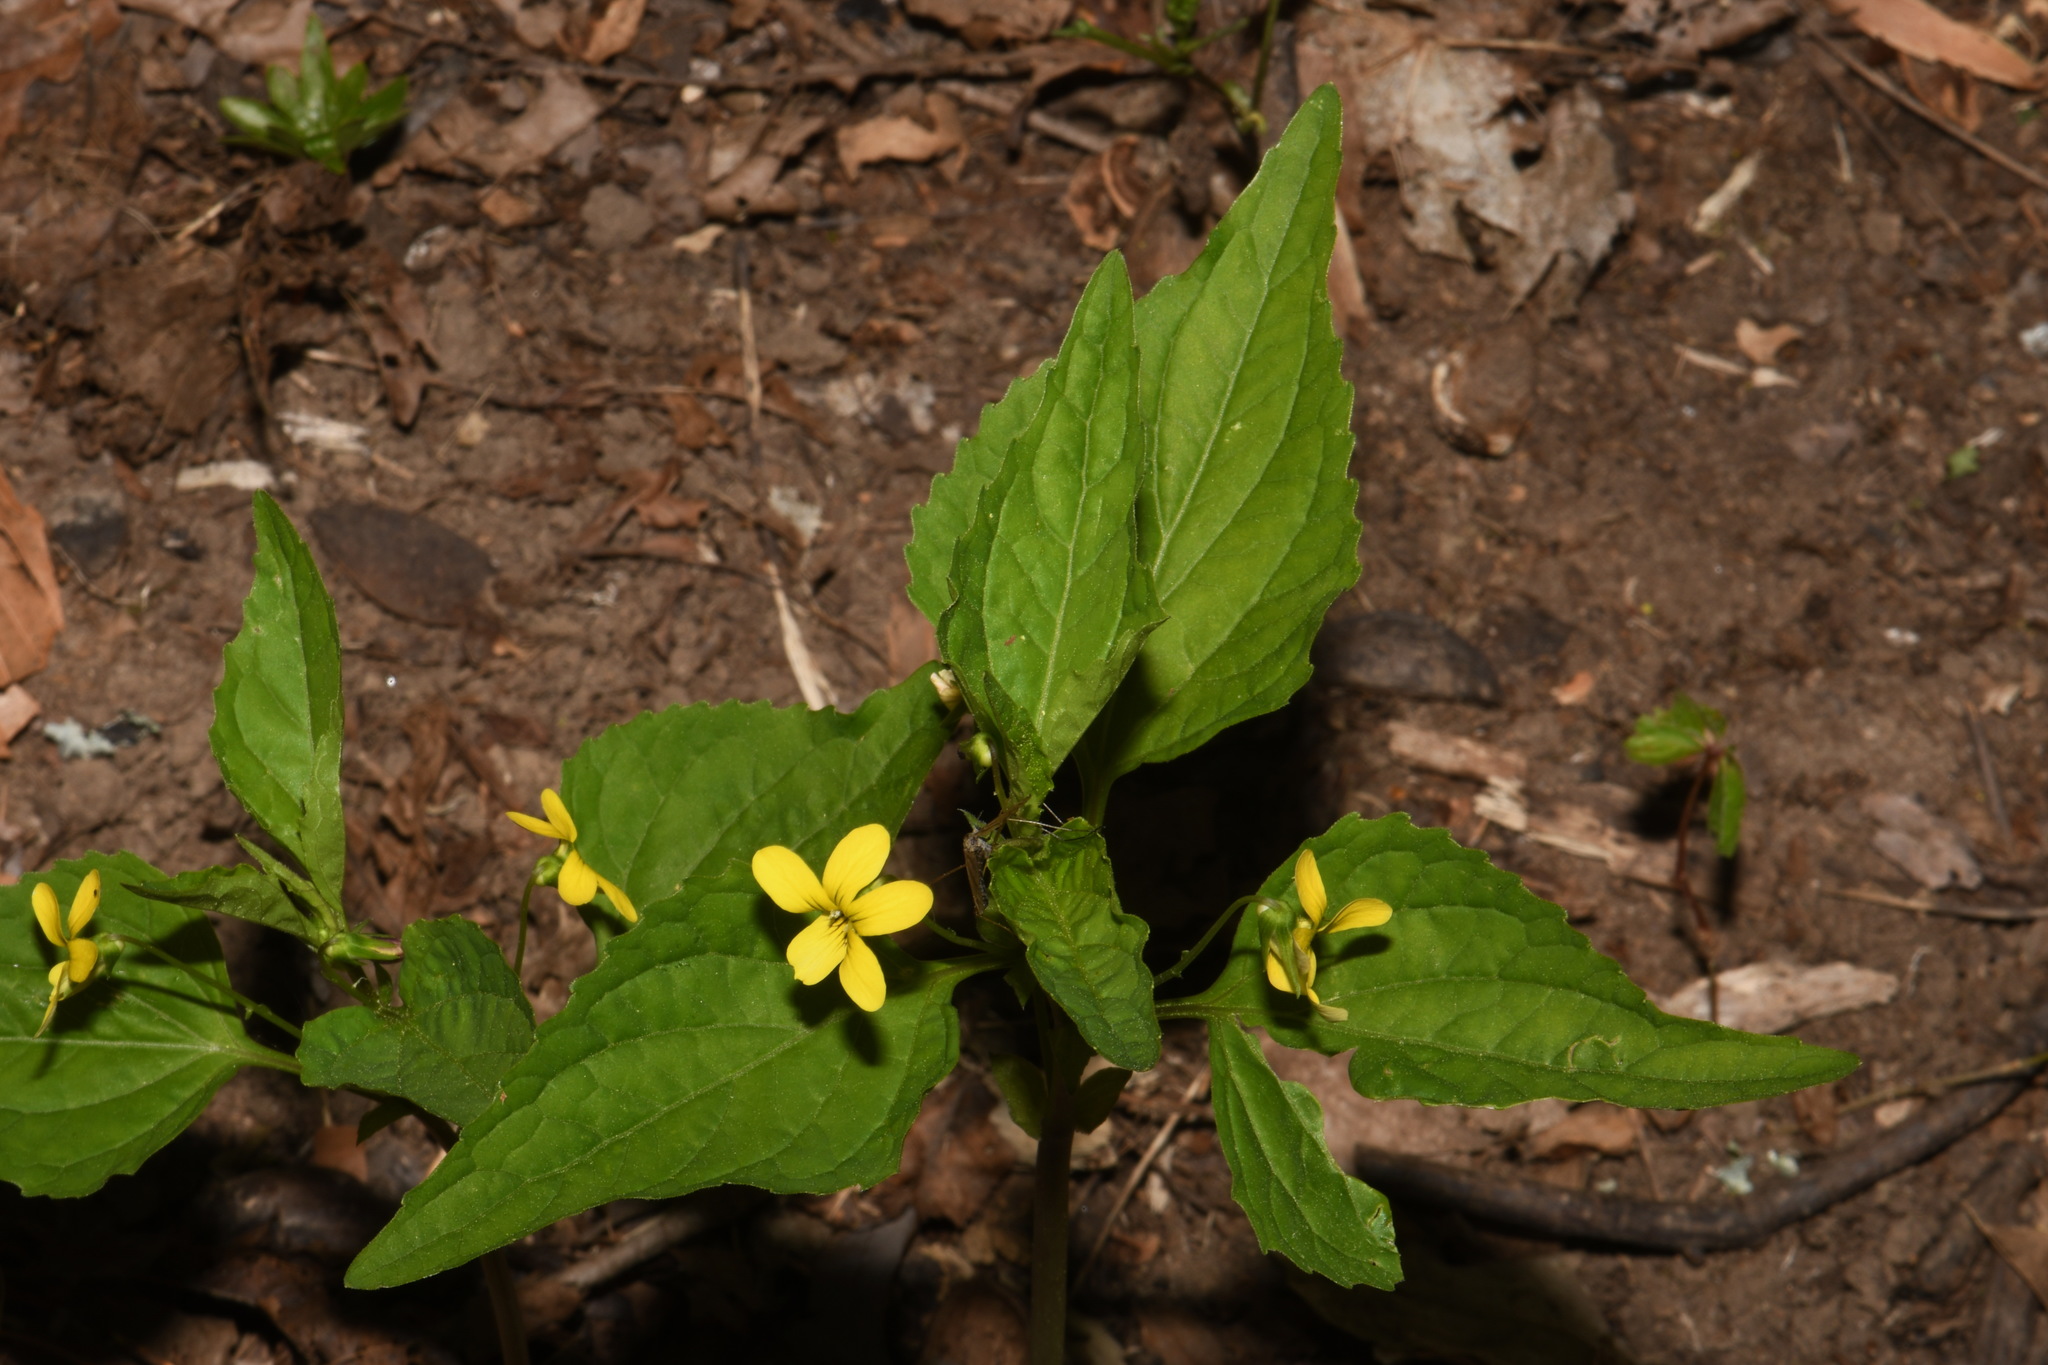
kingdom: Plantae
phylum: Tracheophyta
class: Magnoliopsida
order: Malpighiales
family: Violaceae
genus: Viola
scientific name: Viola glaberrima
